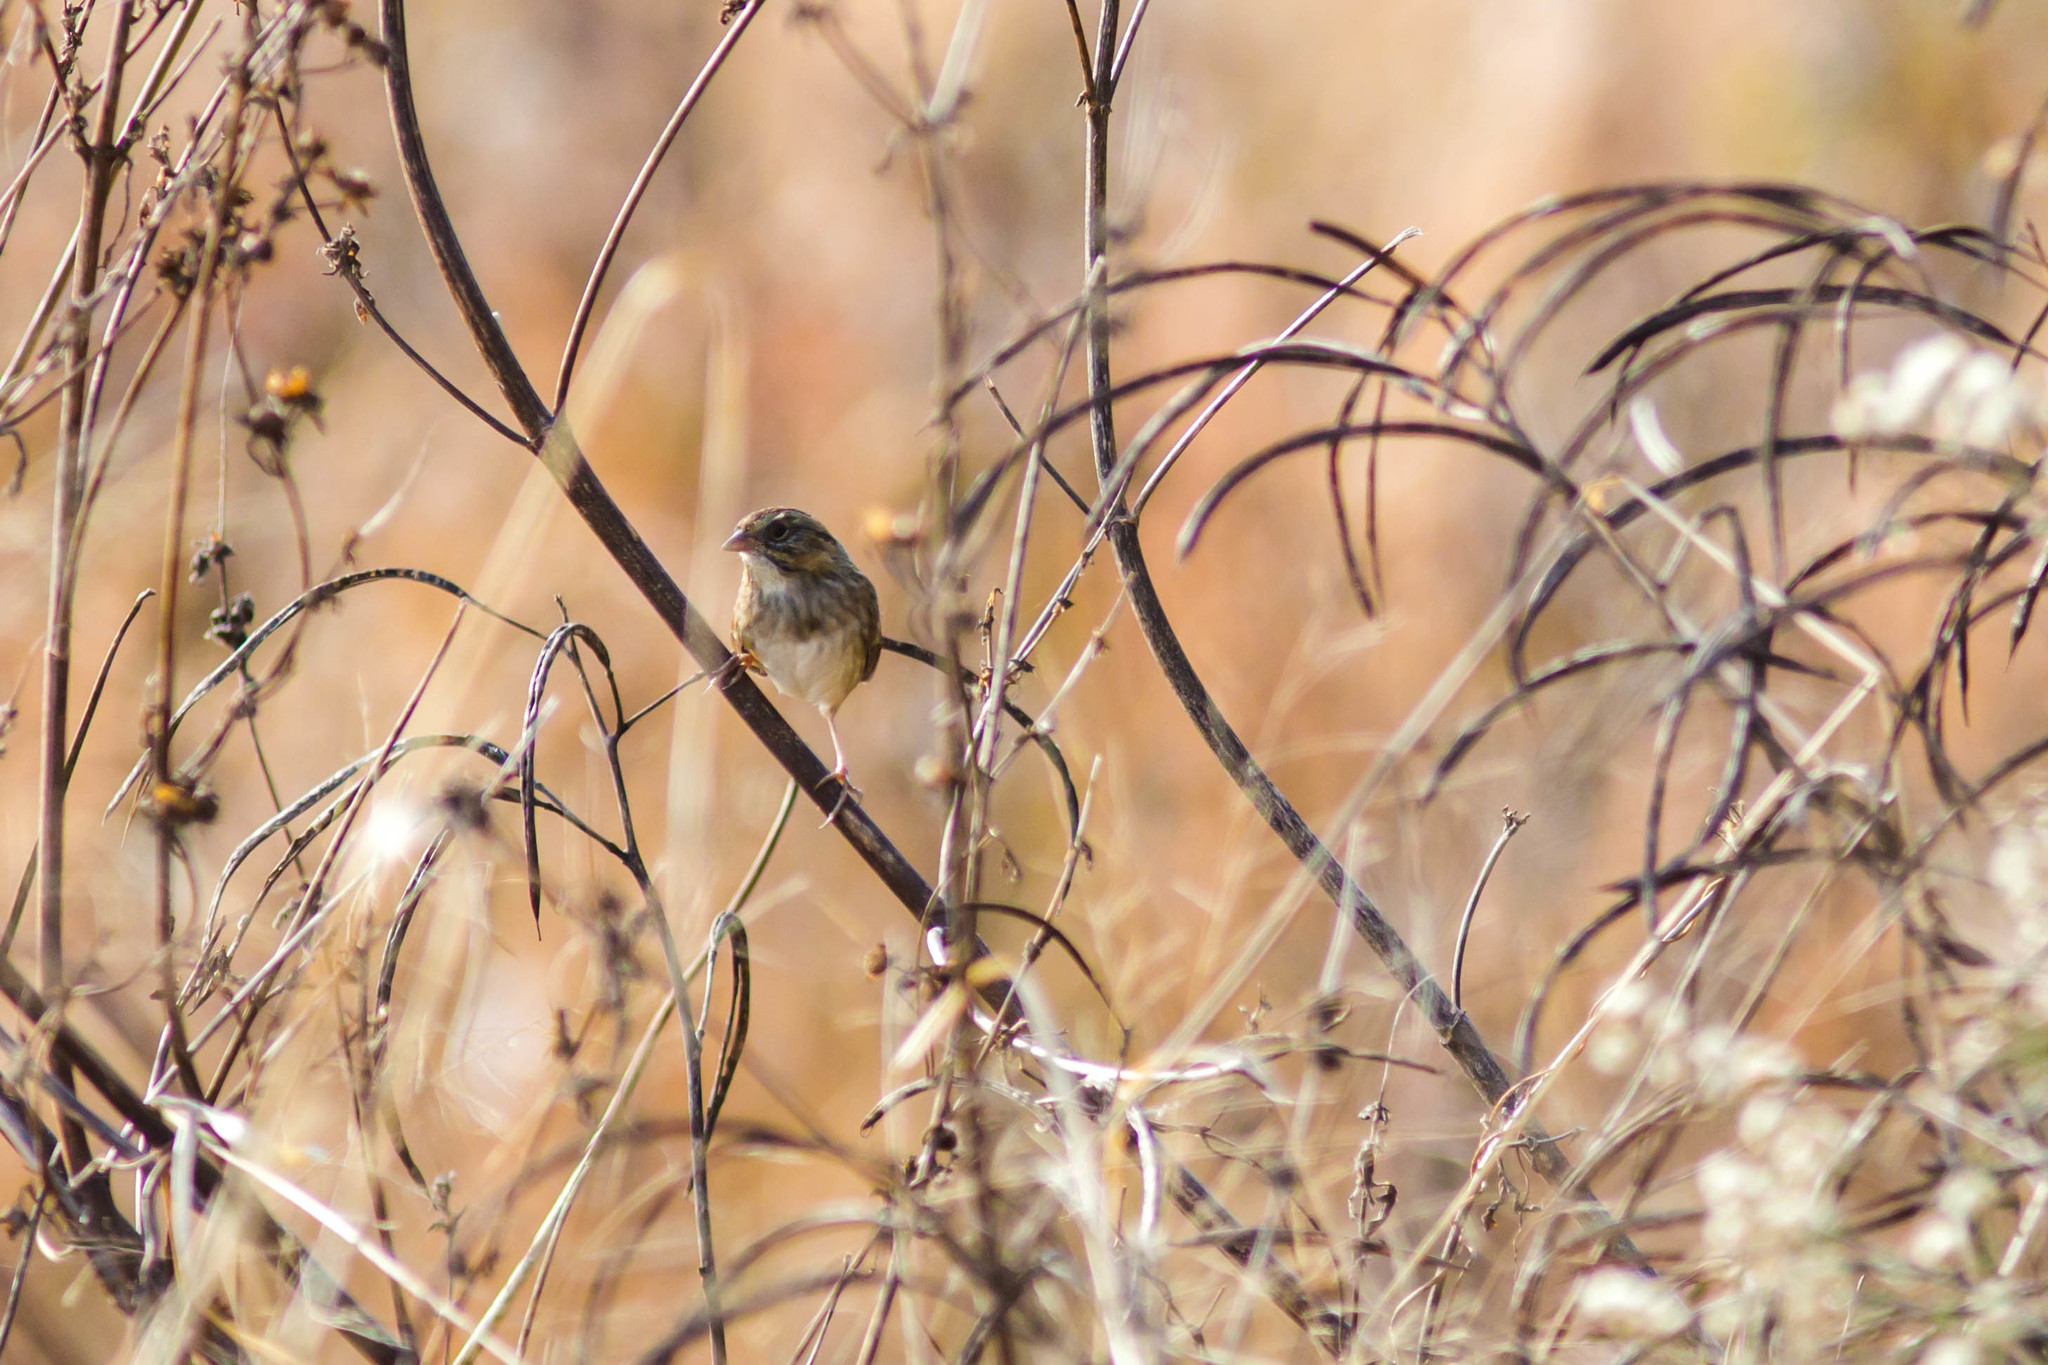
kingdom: Animalia
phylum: Chordata
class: Aves
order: Passeriformes
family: Passerellidae
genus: Melospiza
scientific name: Melospiza georgiana
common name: Swamp sparrow
